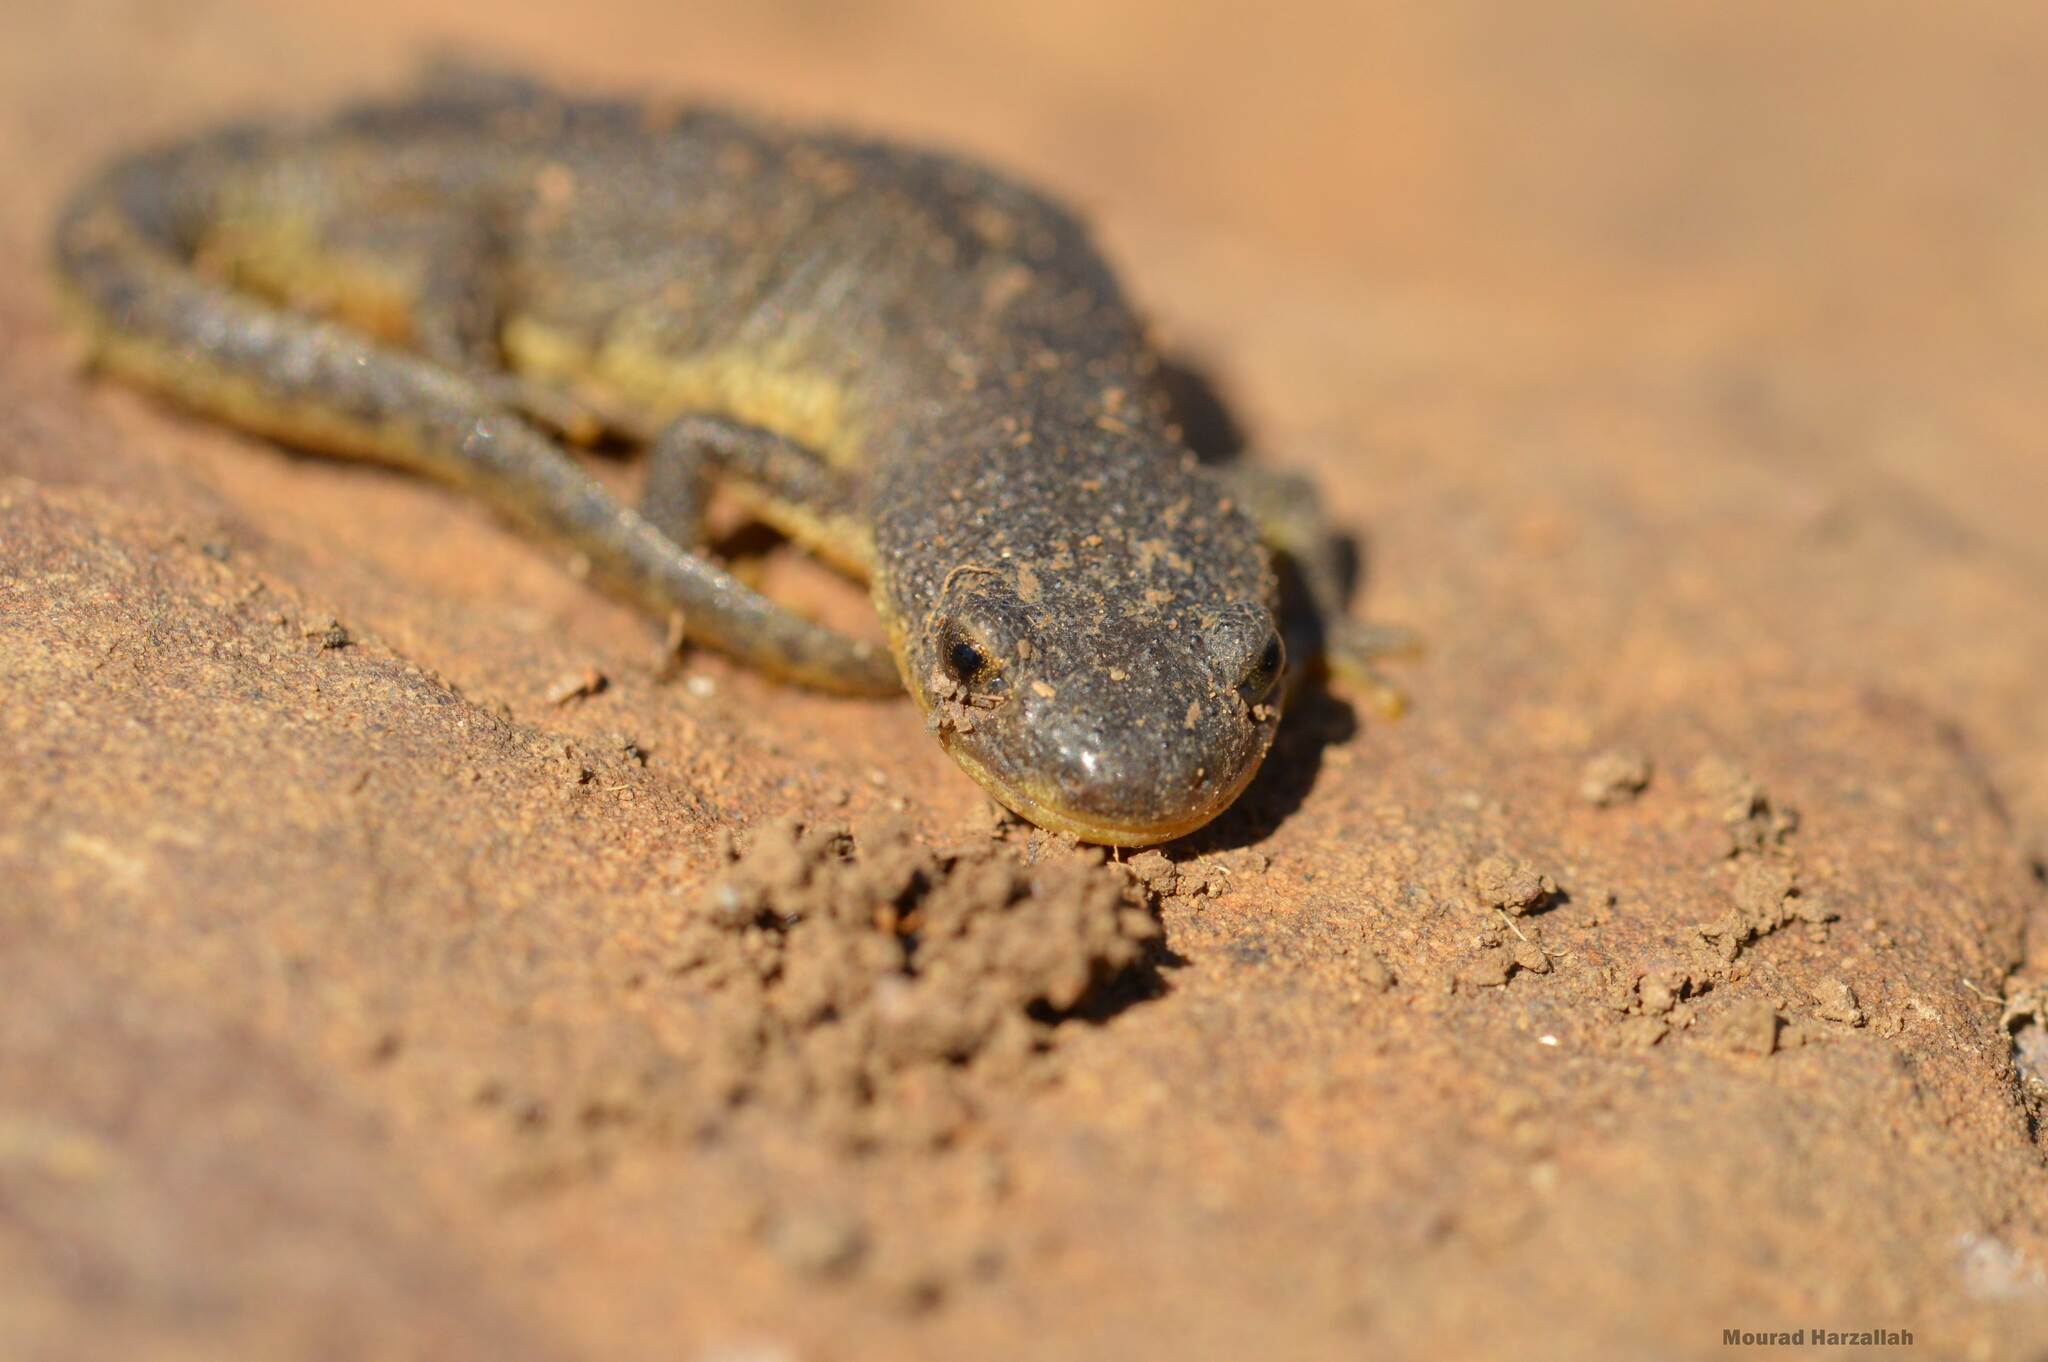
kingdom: Animalia
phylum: Chordata
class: Amphibia
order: Caudata
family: Salamandridae
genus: Pleurodeles
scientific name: Pleurodeles nebulosus
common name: Algerian ribbed newt
